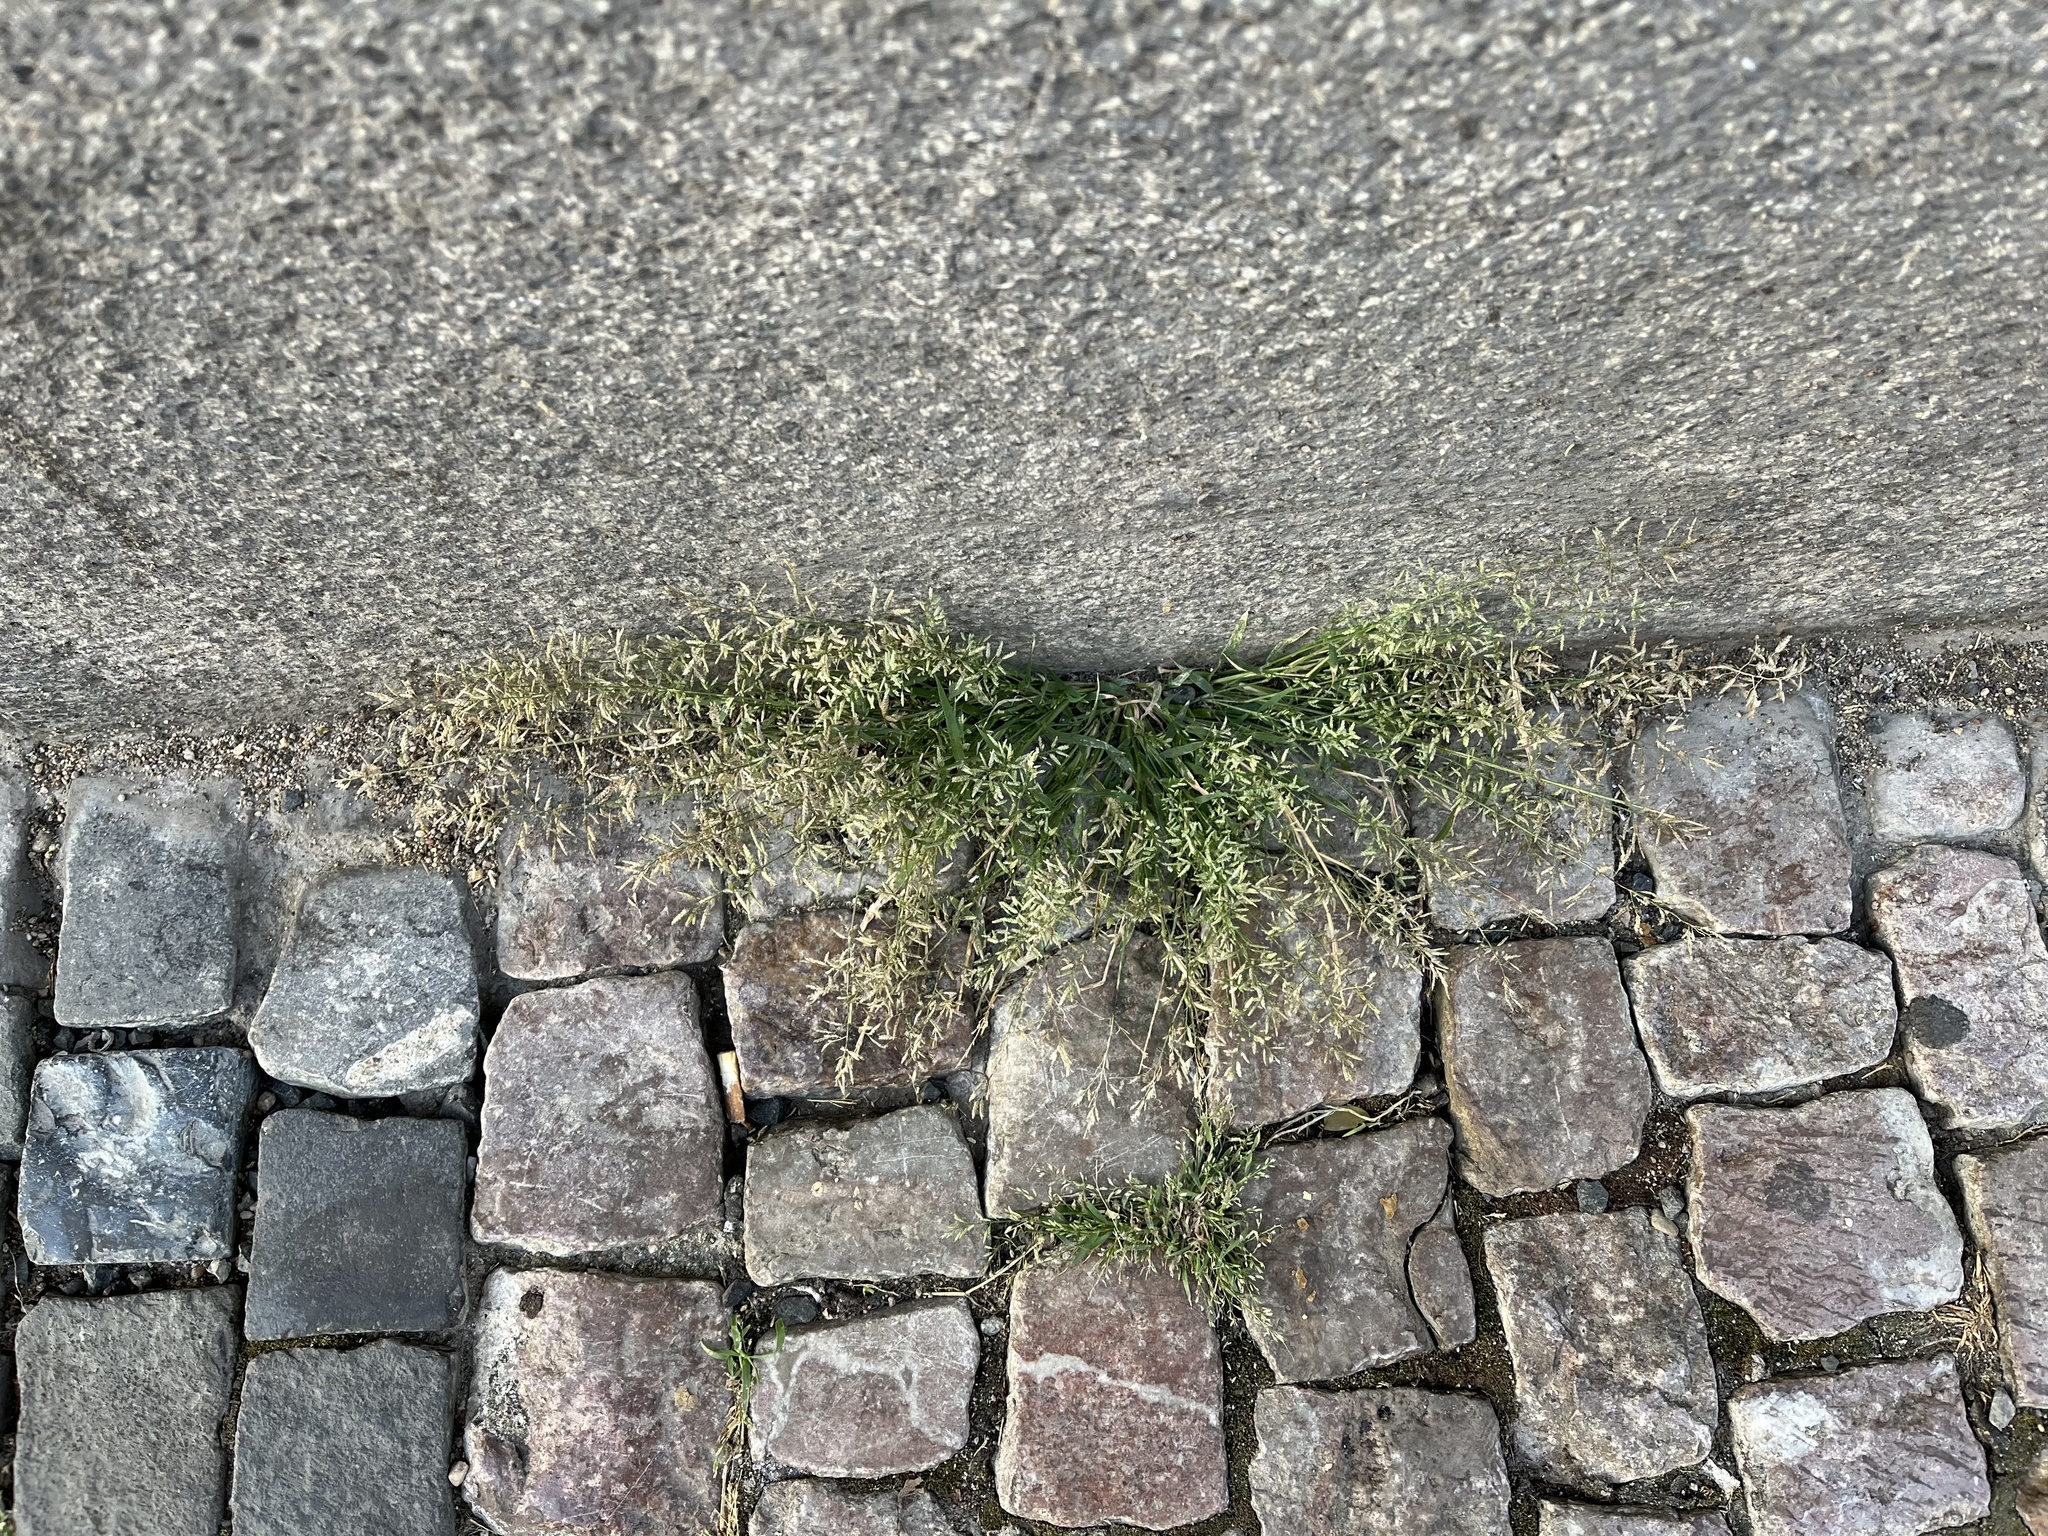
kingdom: Plantae
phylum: Tracheophyta
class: Liliopsida
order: Poales
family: Poaceae
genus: Eragrostis
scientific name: Eragrostis minor
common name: Small love-grass
